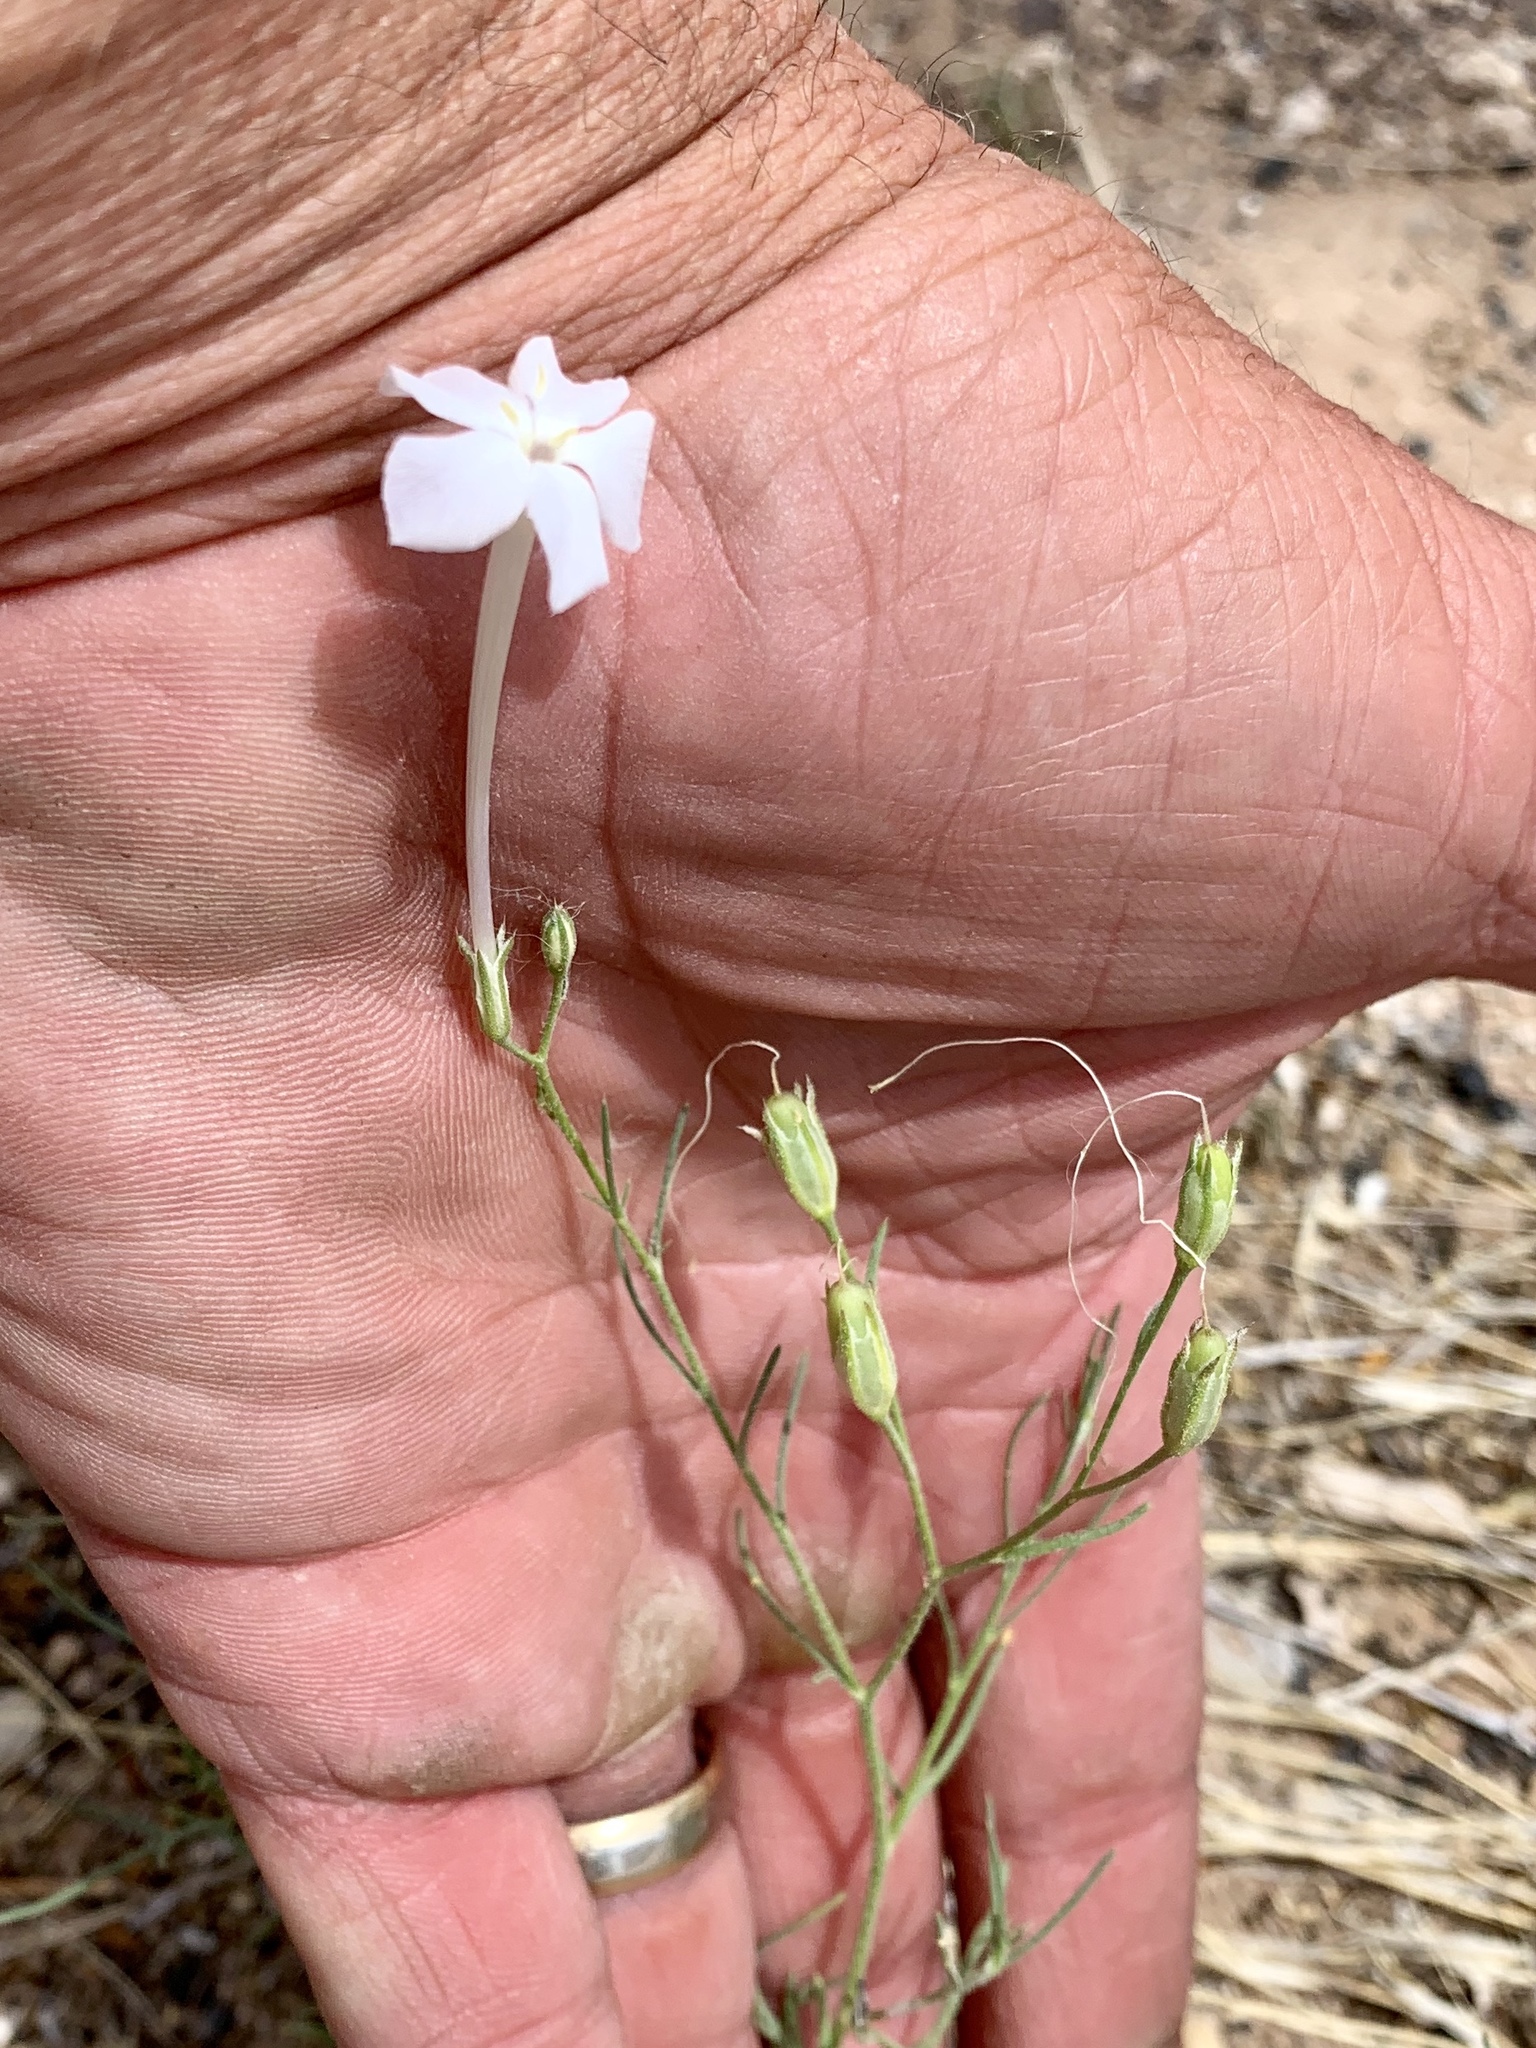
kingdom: Plantae
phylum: Tracheophyta
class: Magnoliopsida
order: Ericales
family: Polemoniaceae
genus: Ipomopsis
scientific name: Ipomopsis longiflora
